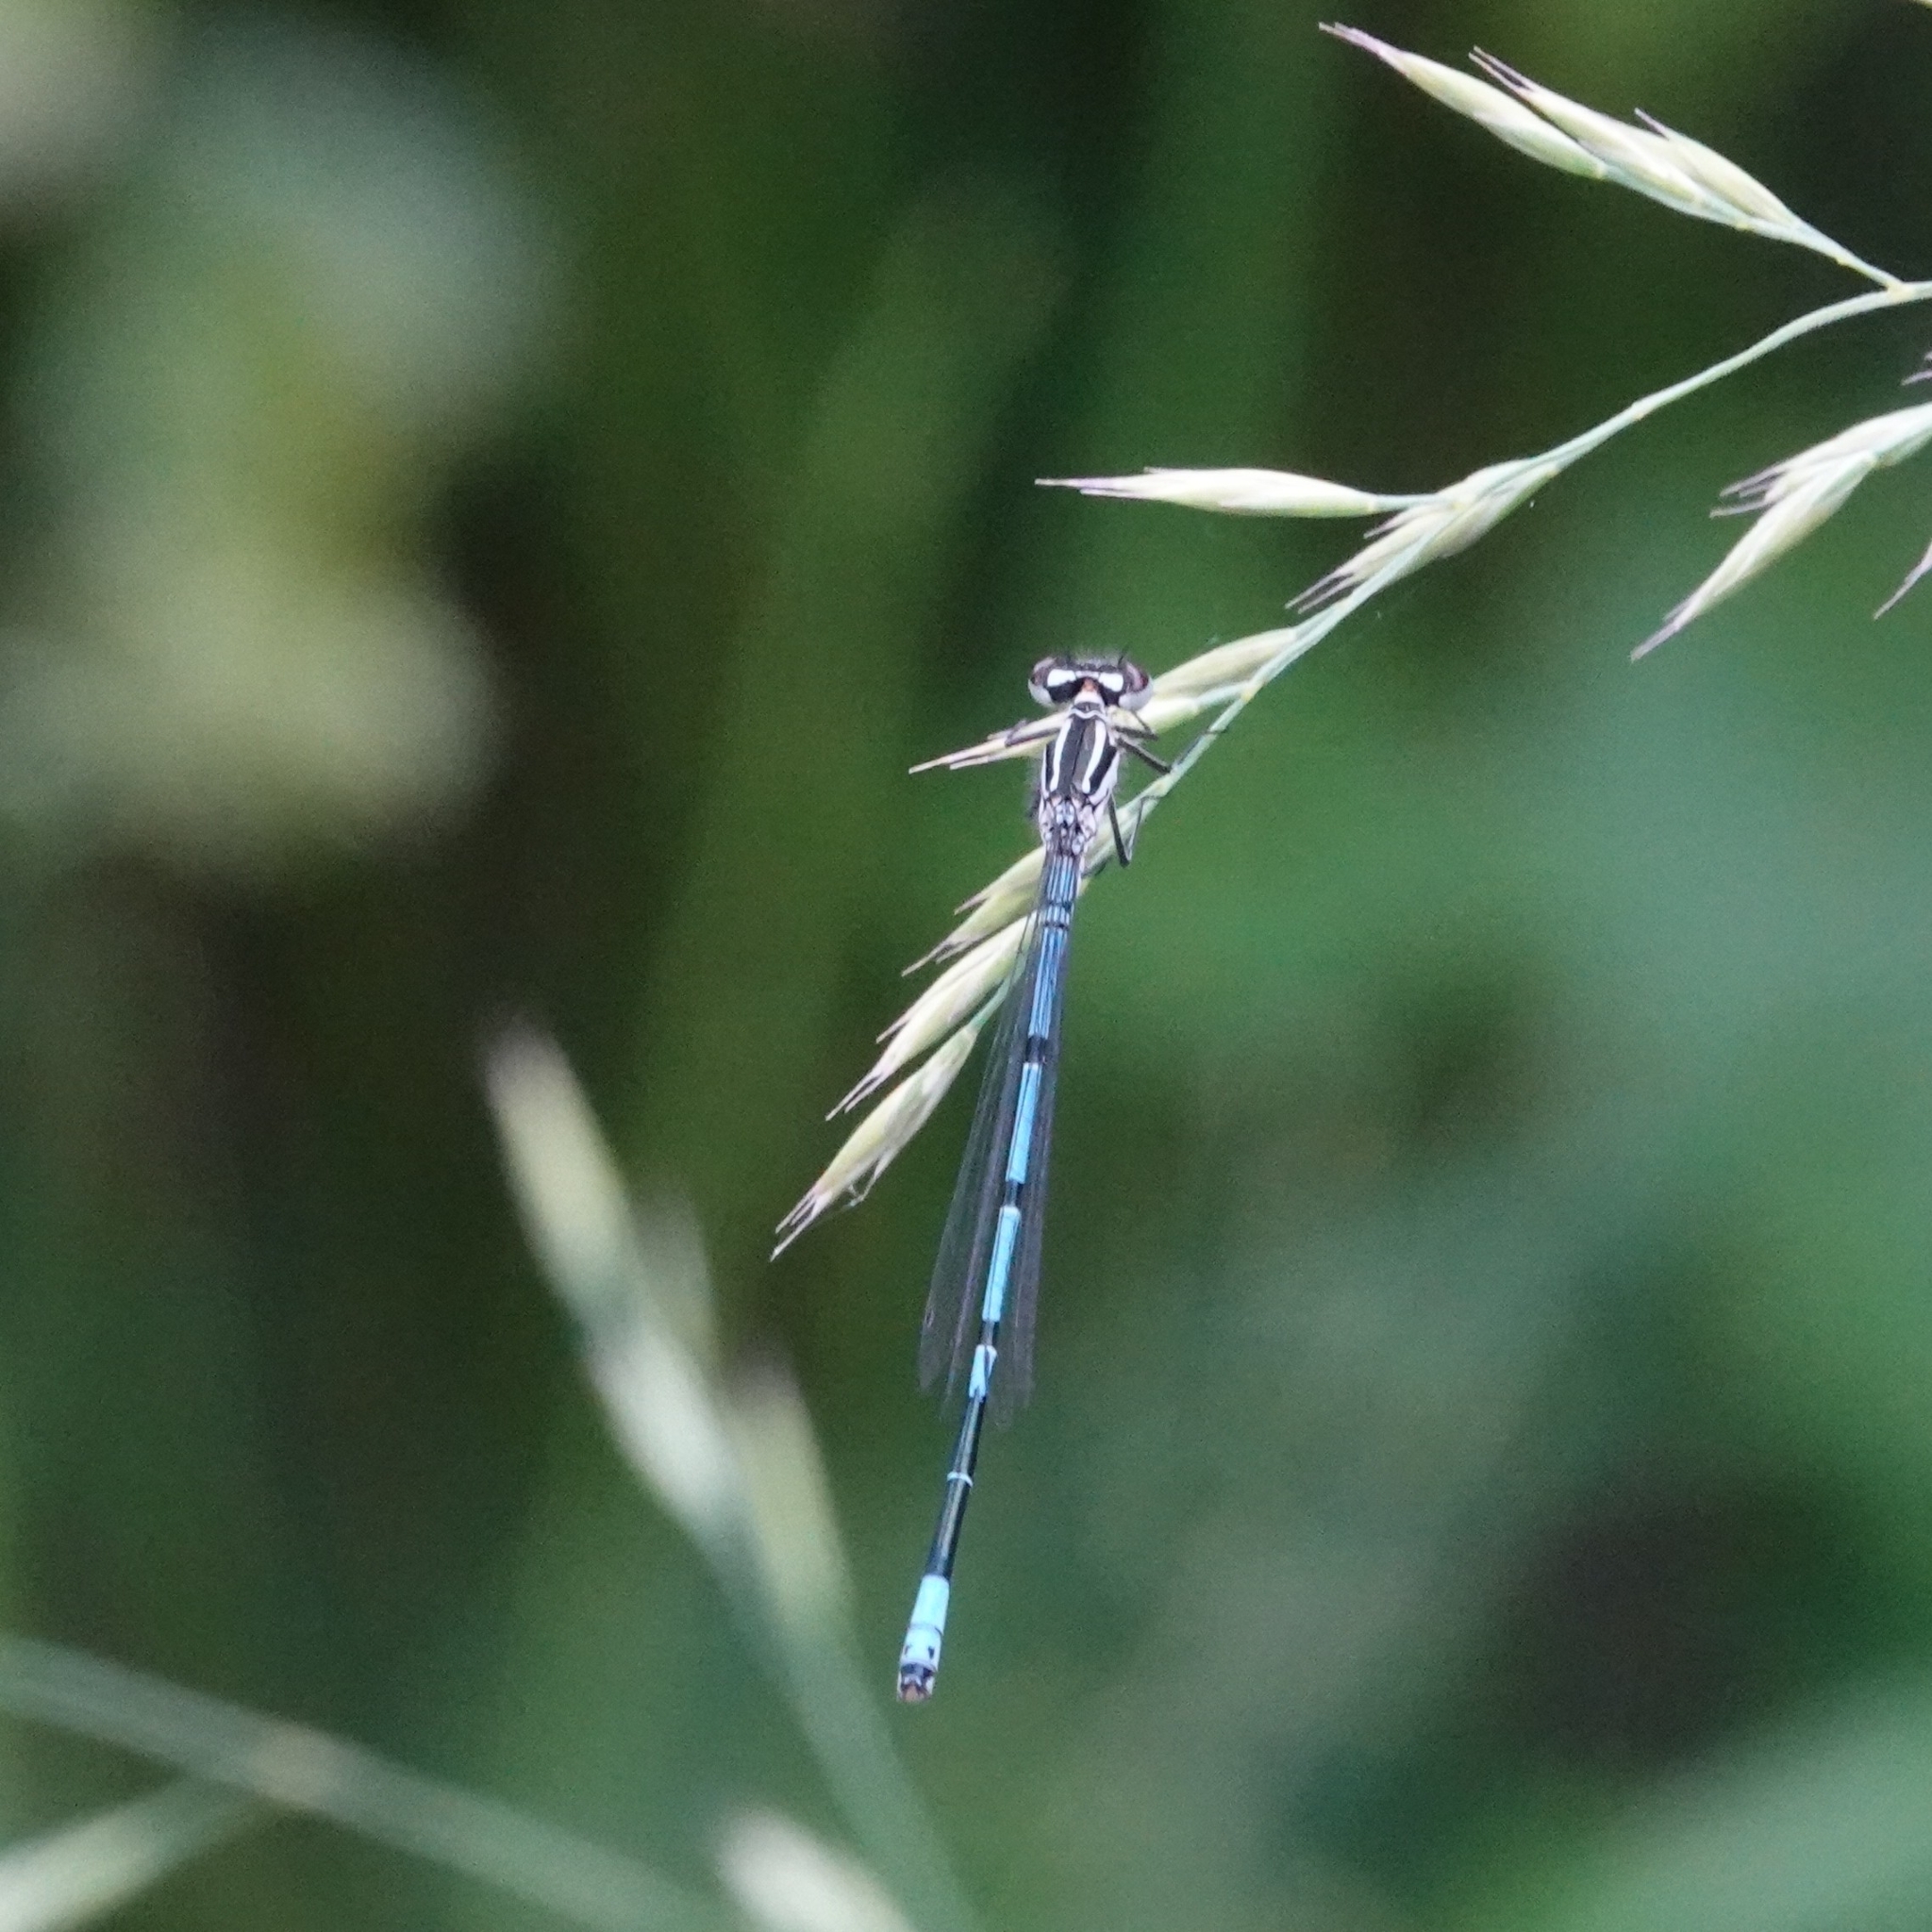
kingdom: Animalia
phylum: Arthropoda
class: Insecta
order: Odonata
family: Coenagrionidae
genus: Coenagrion
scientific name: Coenagrion puella
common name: Azure damselfly
